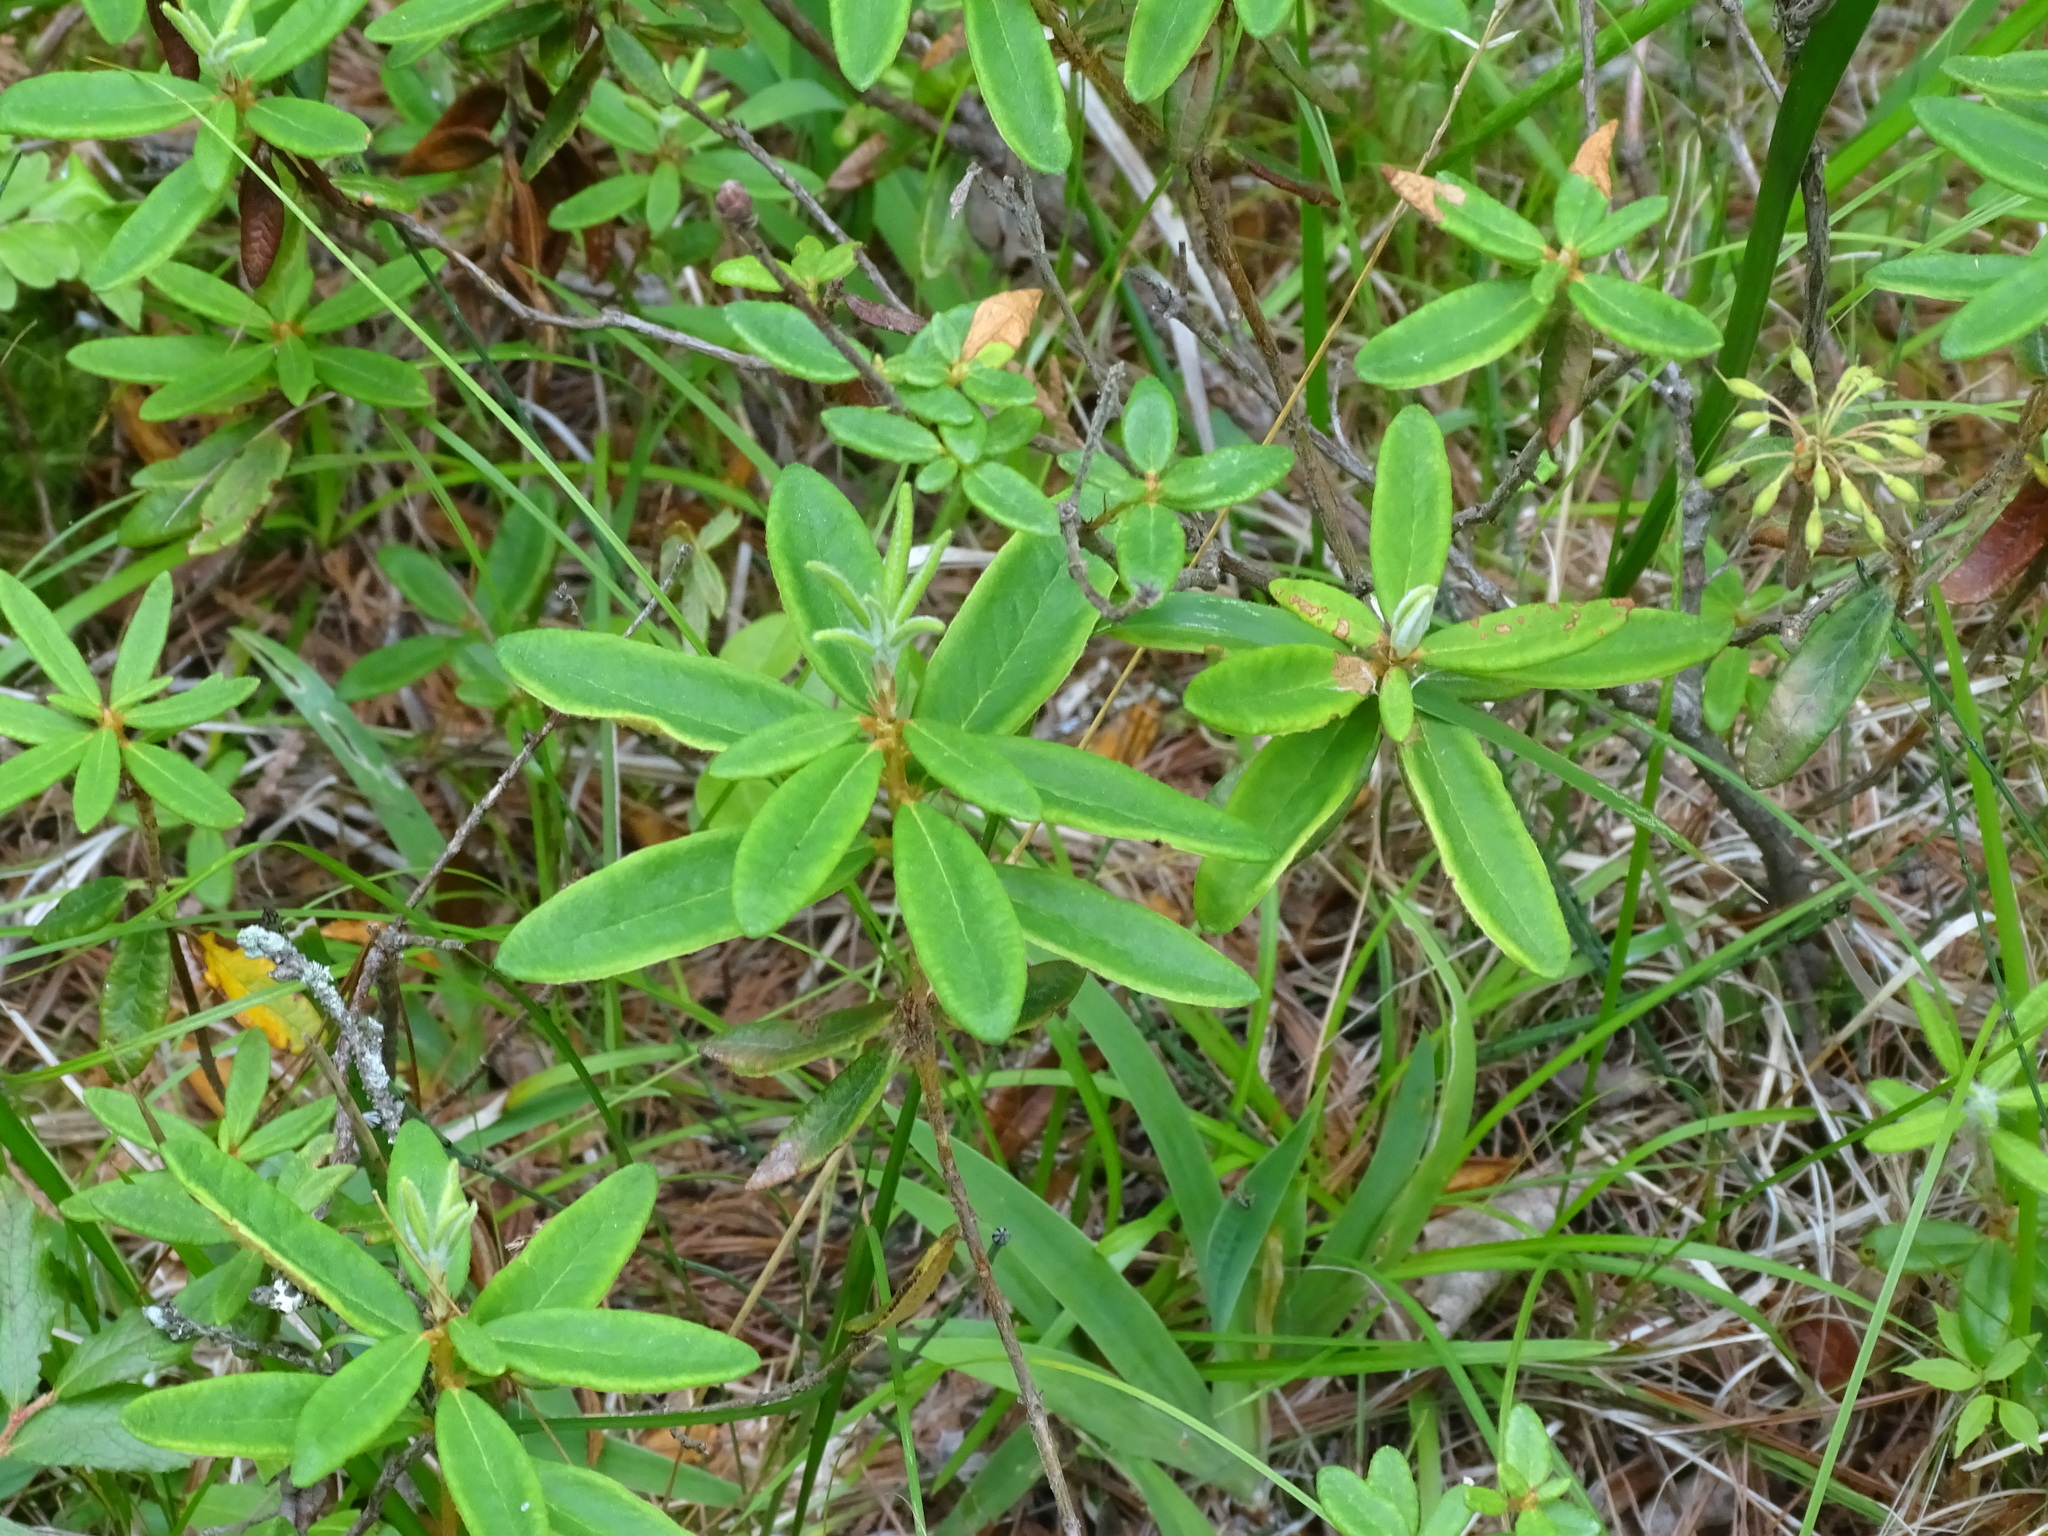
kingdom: Plantae
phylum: Tracheophyta
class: Magnoliopsida
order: Ericales
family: Ericaceae
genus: Rhododendron
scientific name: Rhododendron groenlandicum
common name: Bog labrador tea
